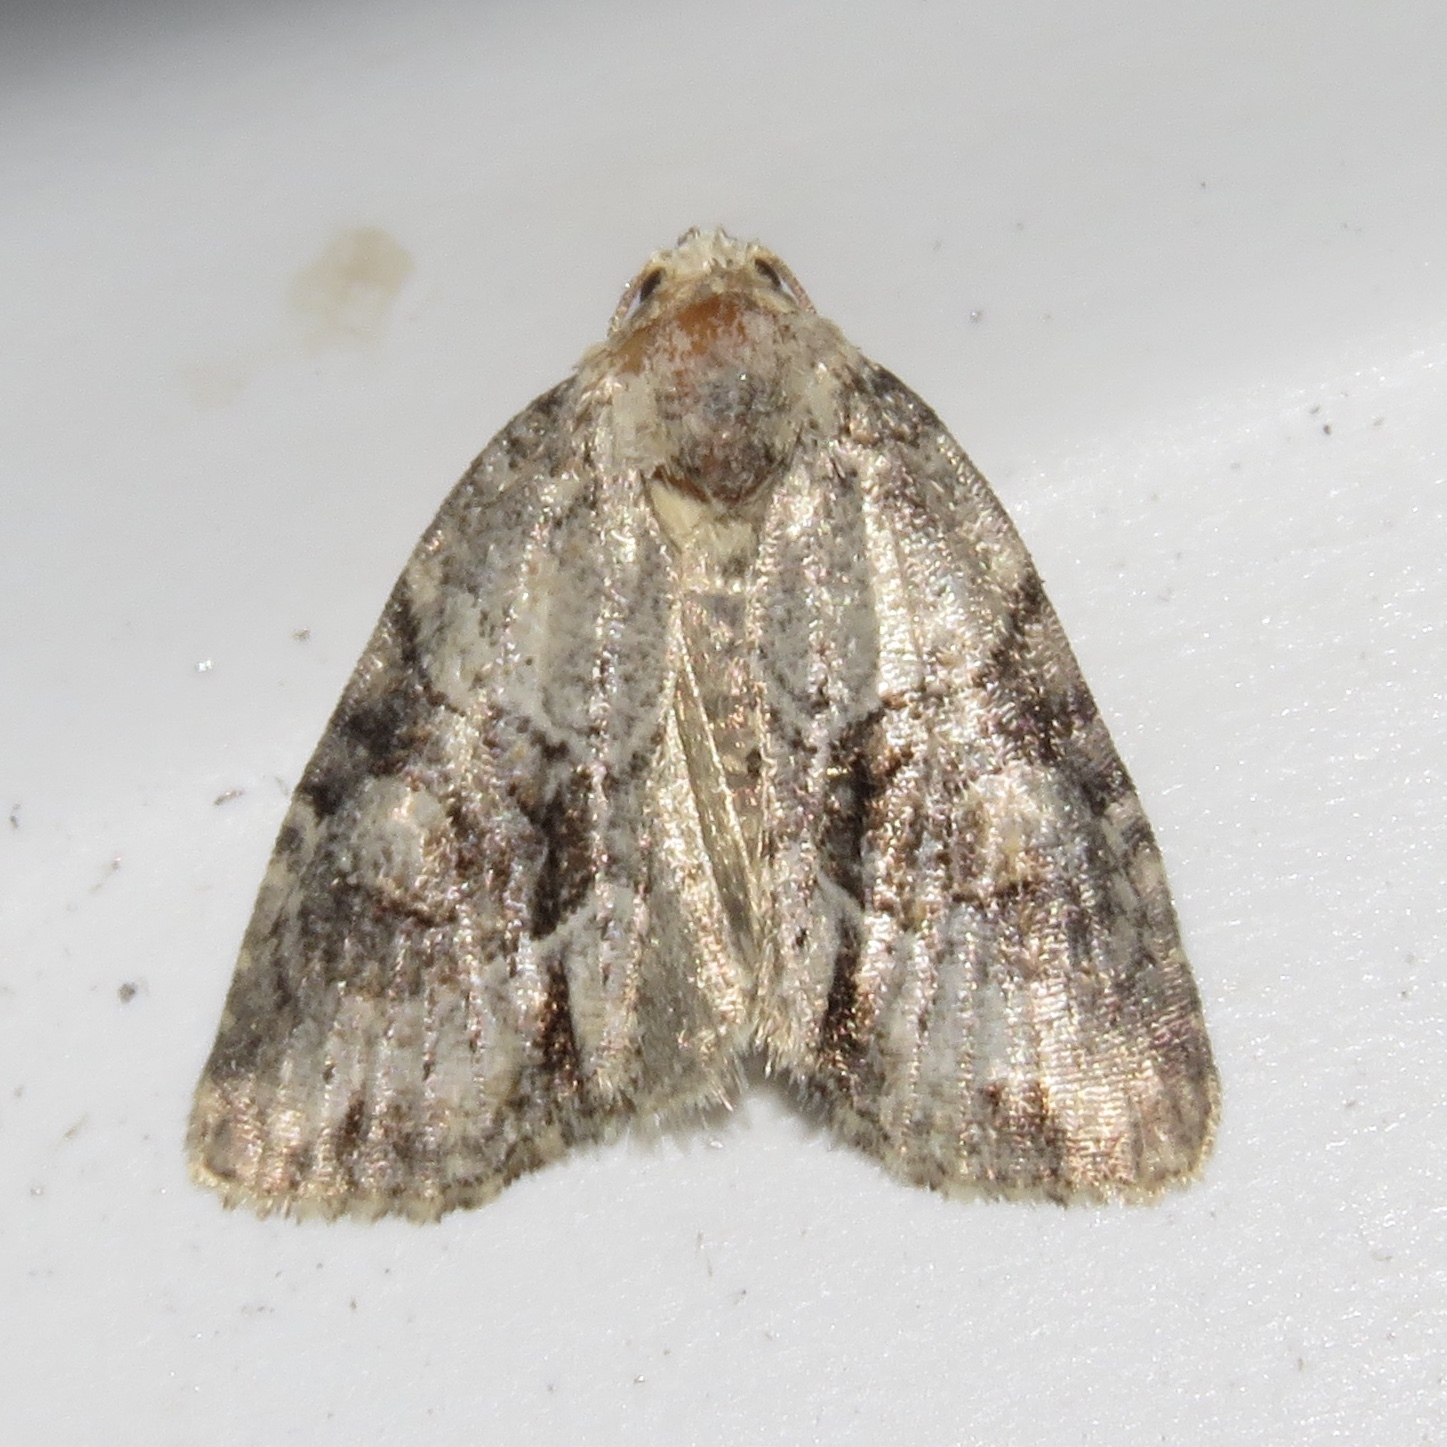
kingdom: Animalia
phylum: Arthropoda
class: Insecta
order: Lepidoptera
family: Noctuidae
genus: Neoligia
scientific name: Neoligia exhausta
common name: Exhausted brocade
